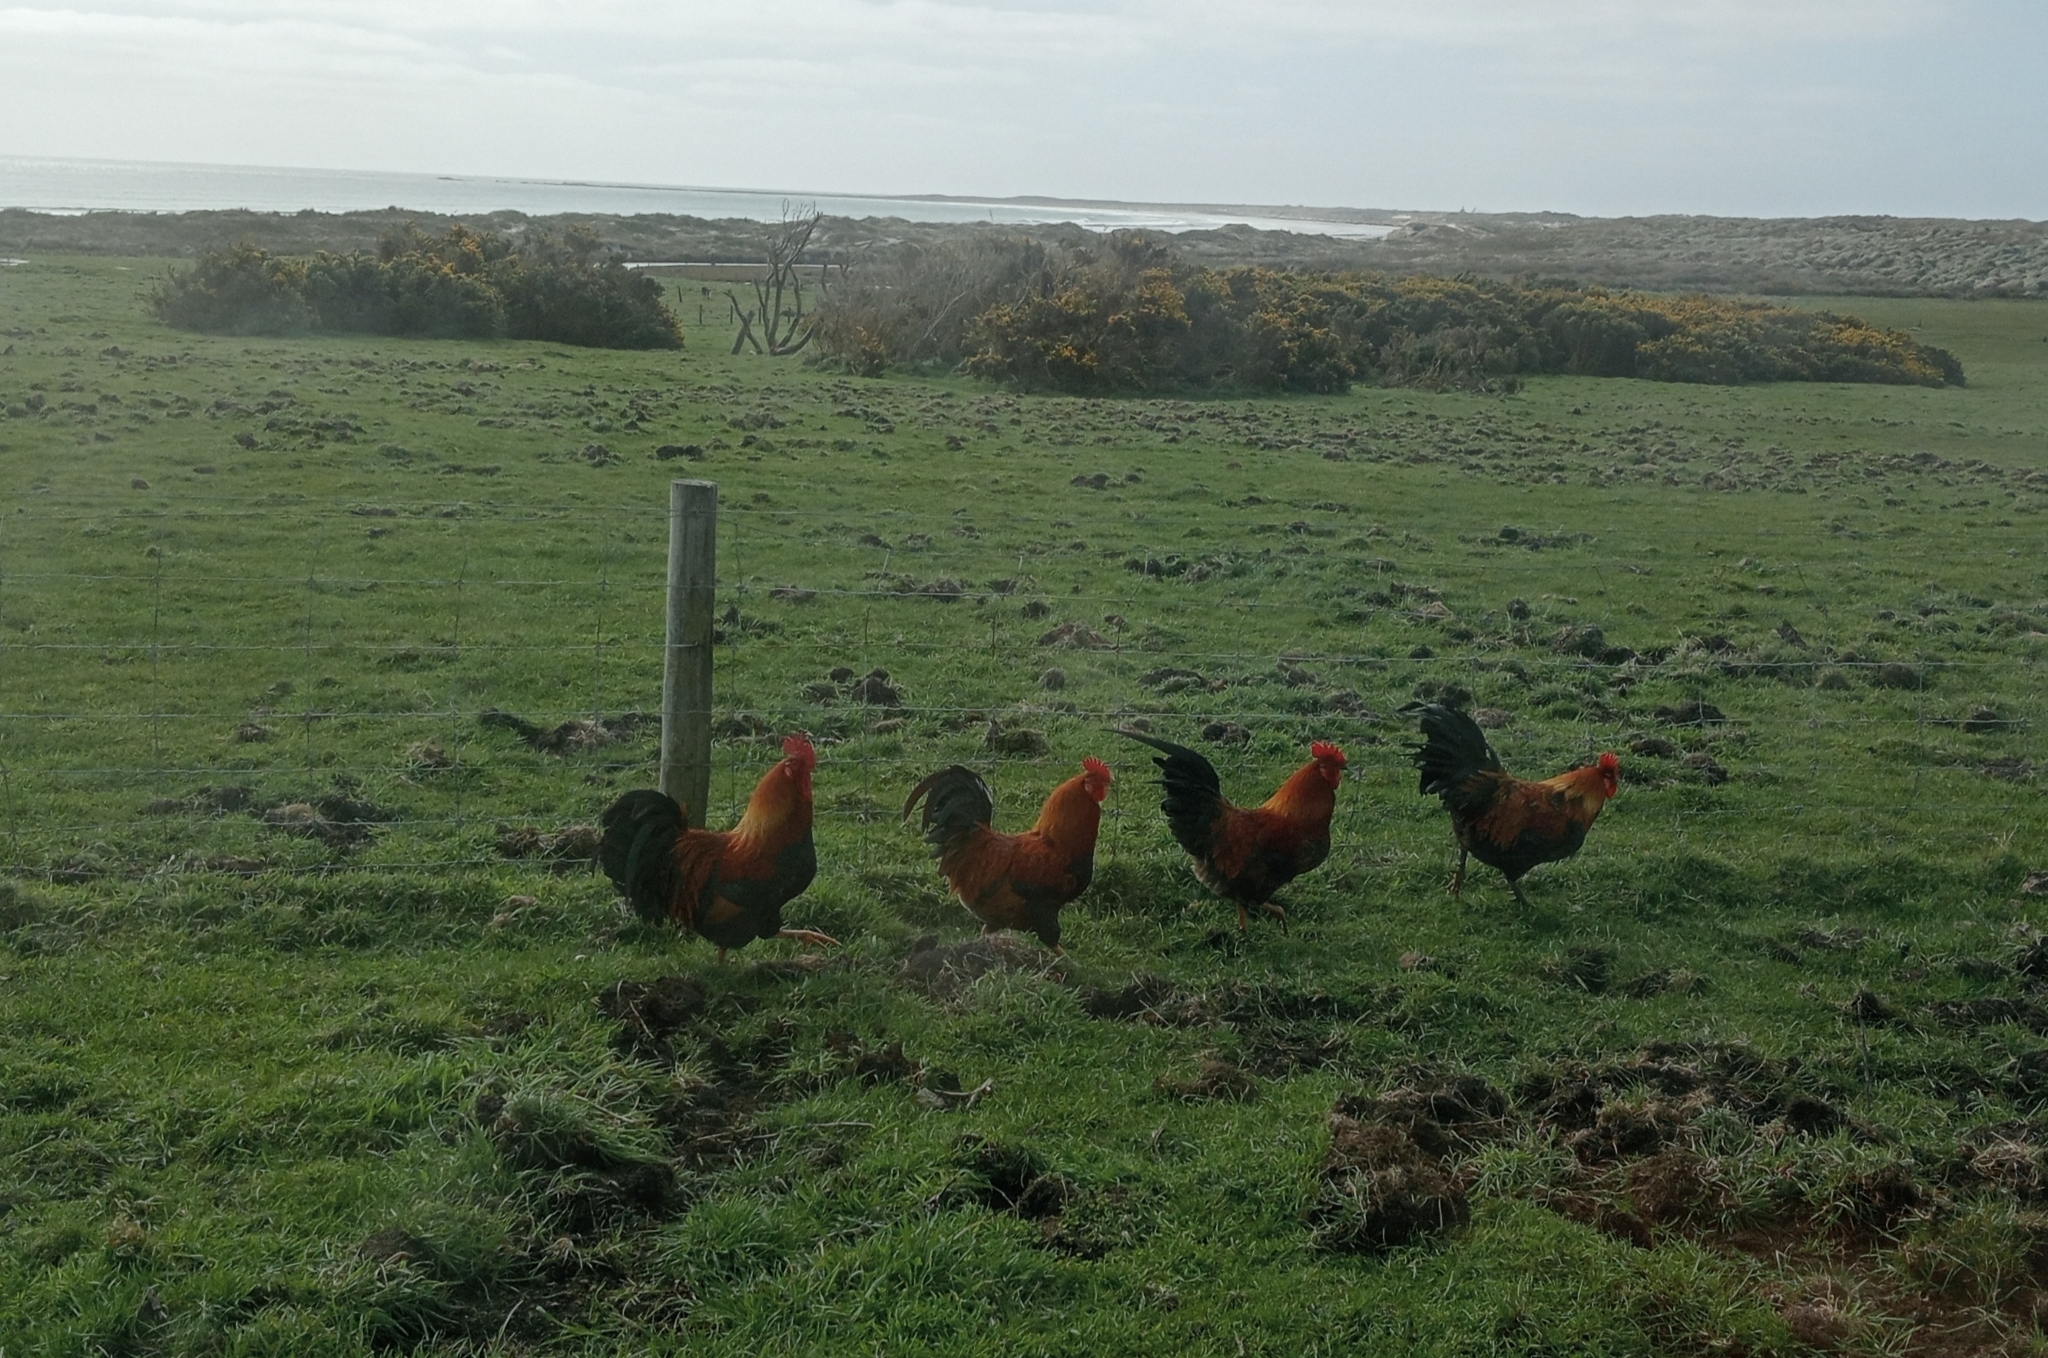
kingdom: Animalia
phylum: Chordata
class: Aves
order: Galliformes
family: Phasianidae
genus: Gallus
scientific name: Gallus gallus
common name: Red junglefowl
